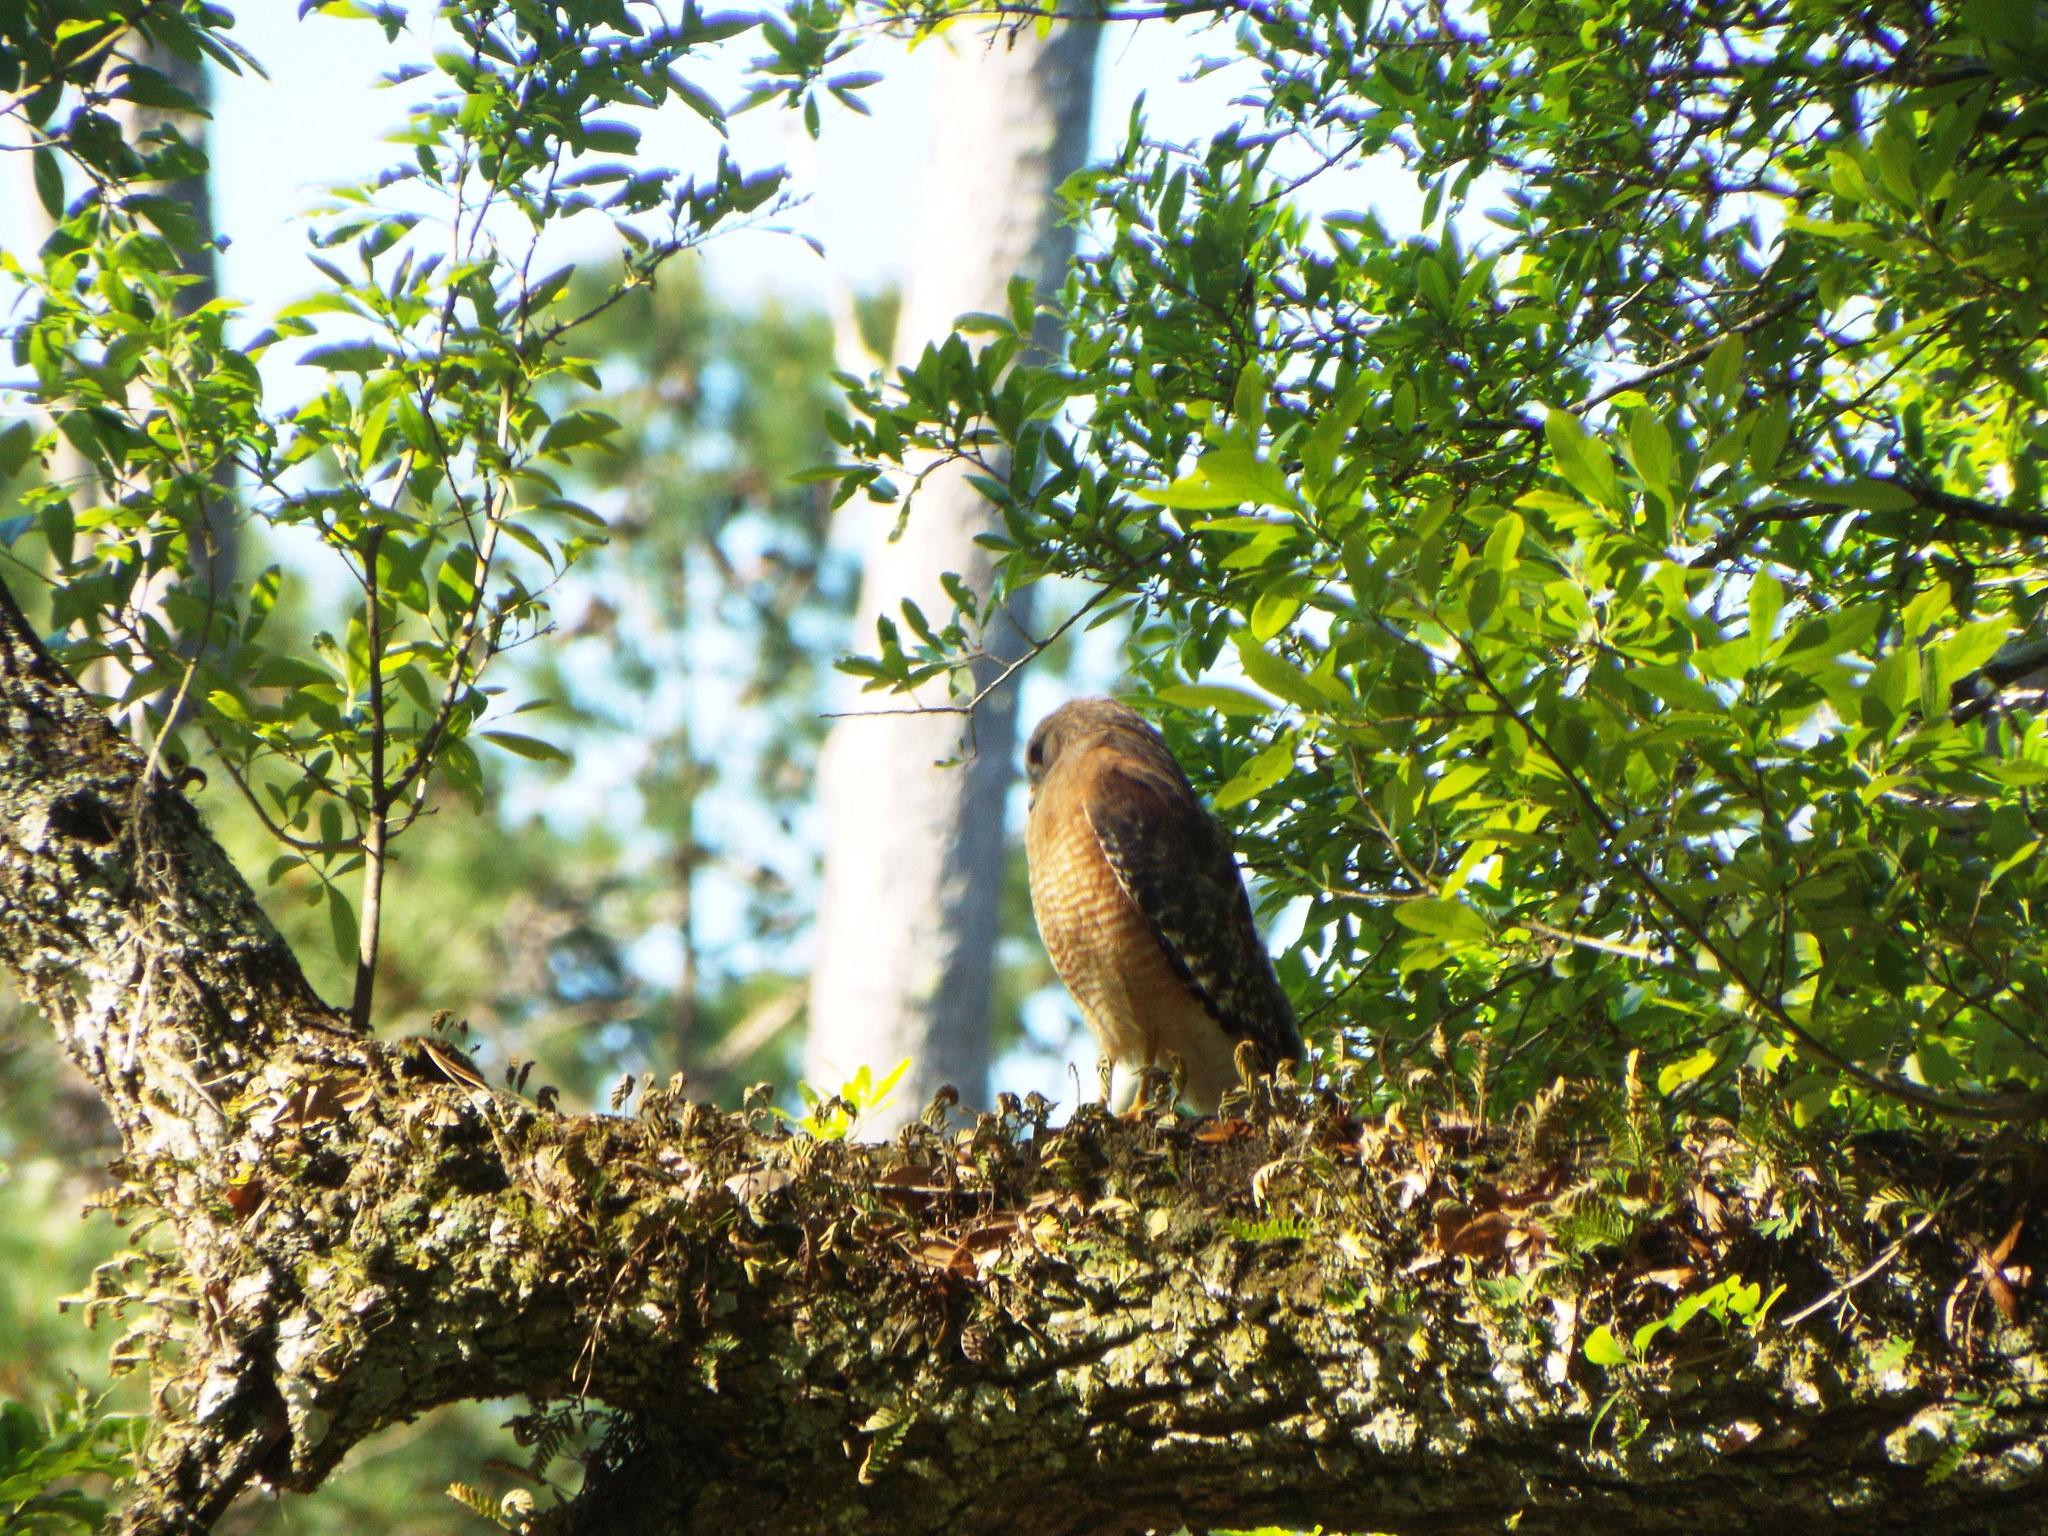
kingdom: Animalia
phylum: Chordata
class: Aves
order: Accipitriformes
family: Accipitridae
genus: Buteo
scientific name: Buteo lineatus
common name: Red-shouldered hawk
